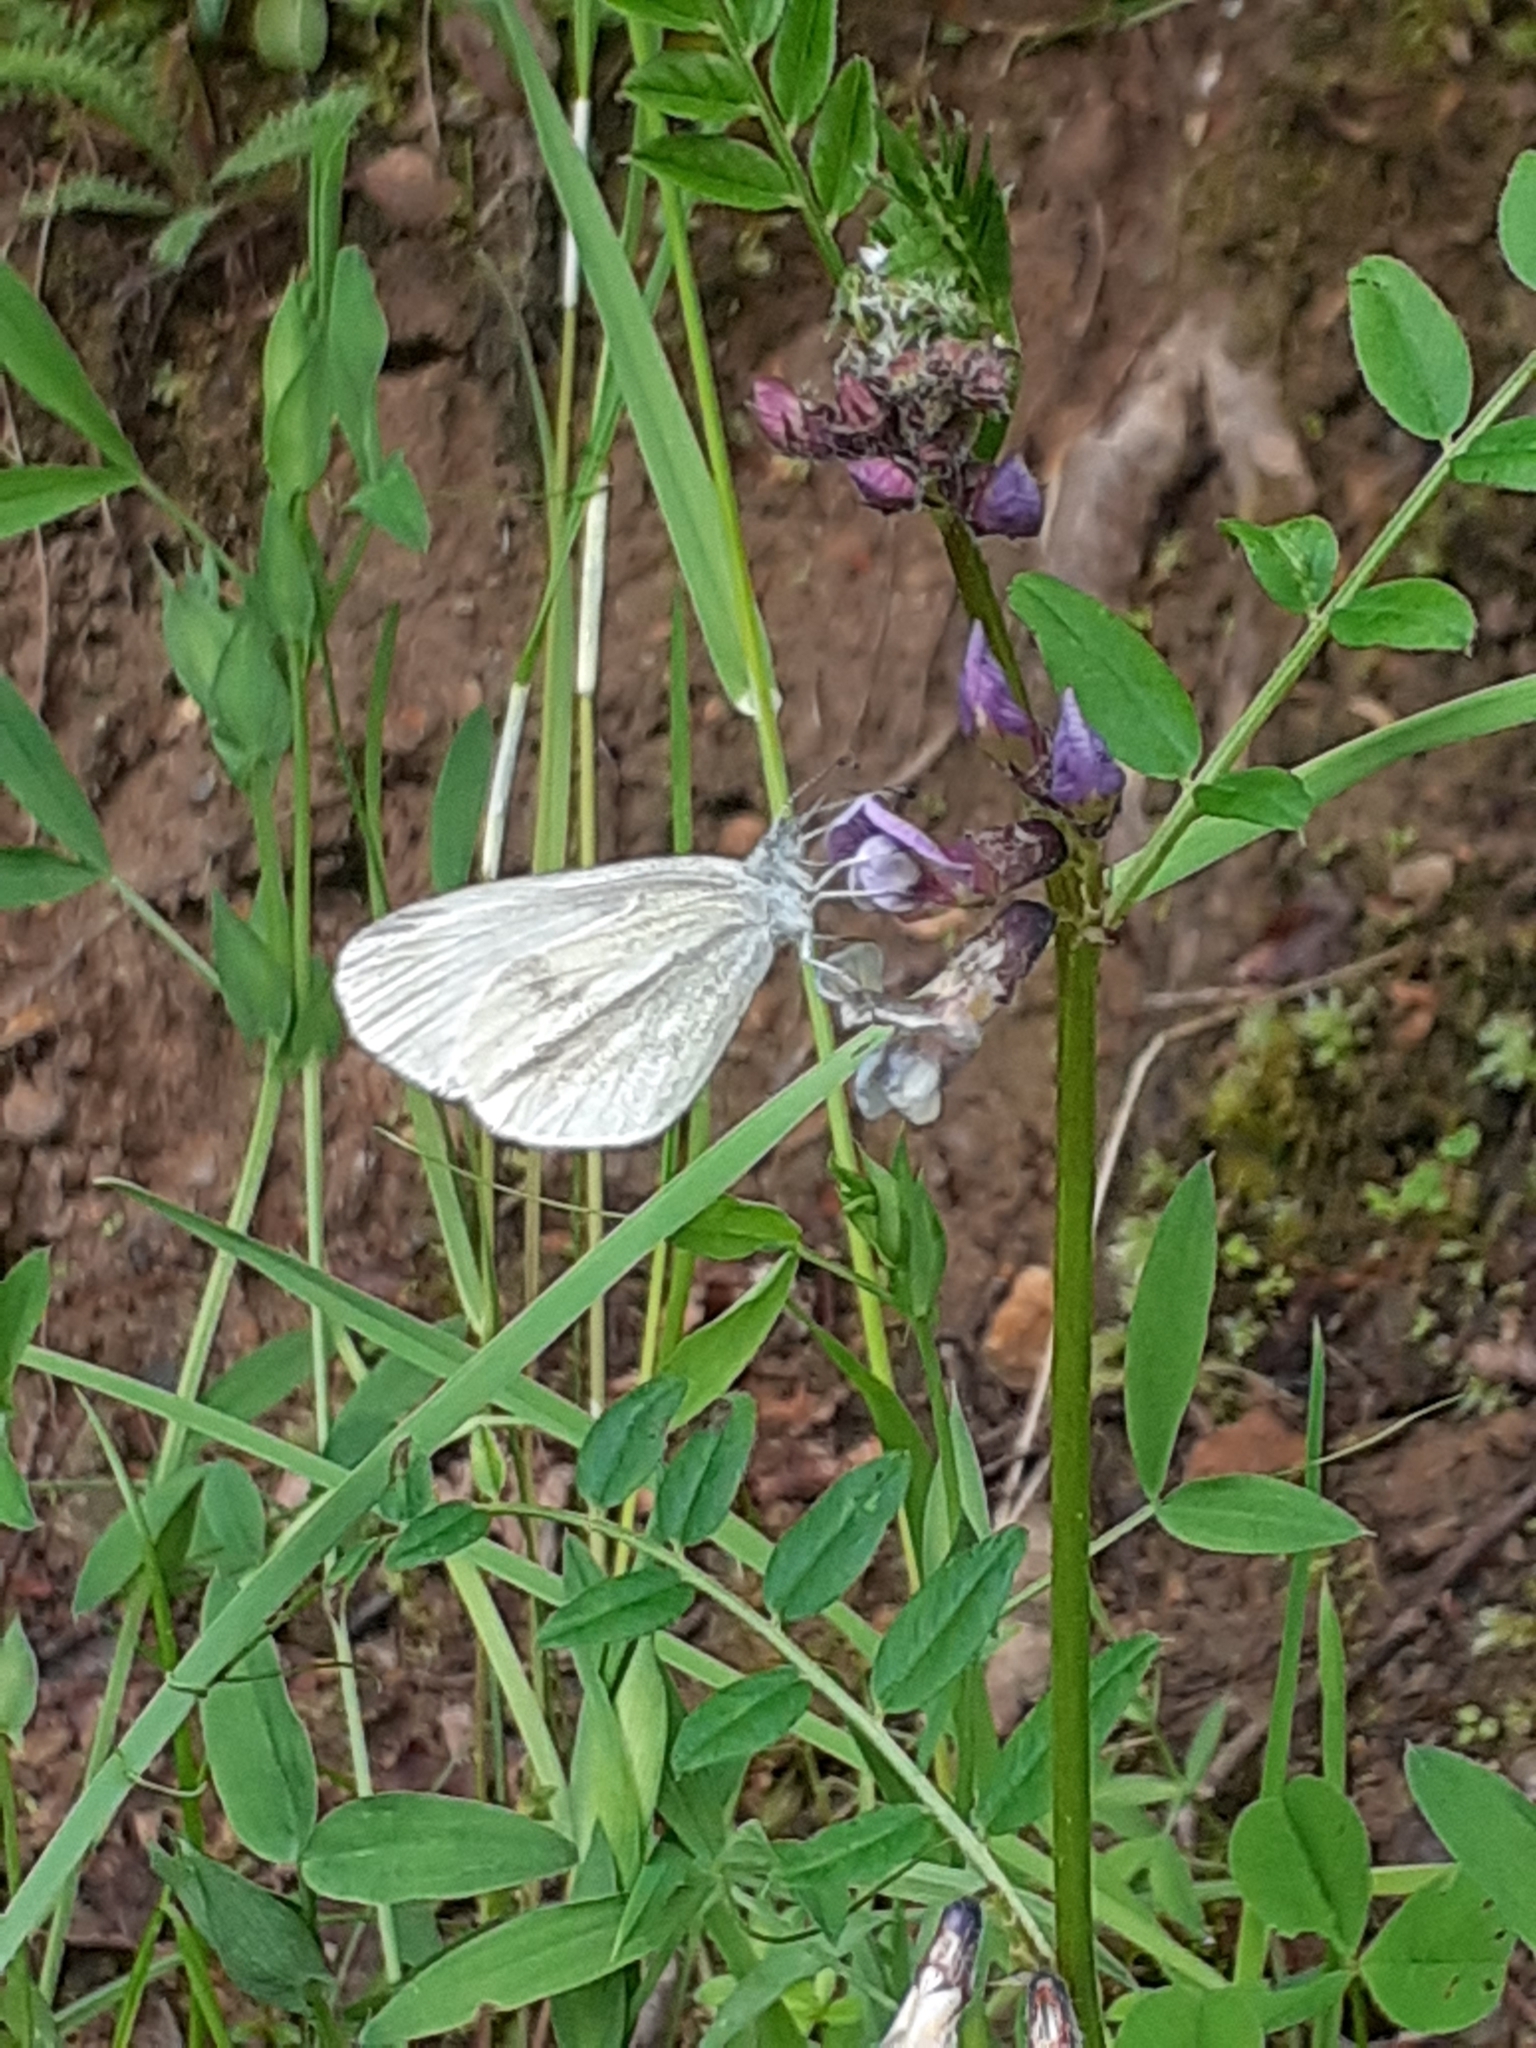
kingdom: Animalia
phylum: Arthropoda
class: Insecta
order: Lepidoptera
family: Pieridae
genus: Leptidea
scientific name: Leptidea sinapis
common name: Wood white
